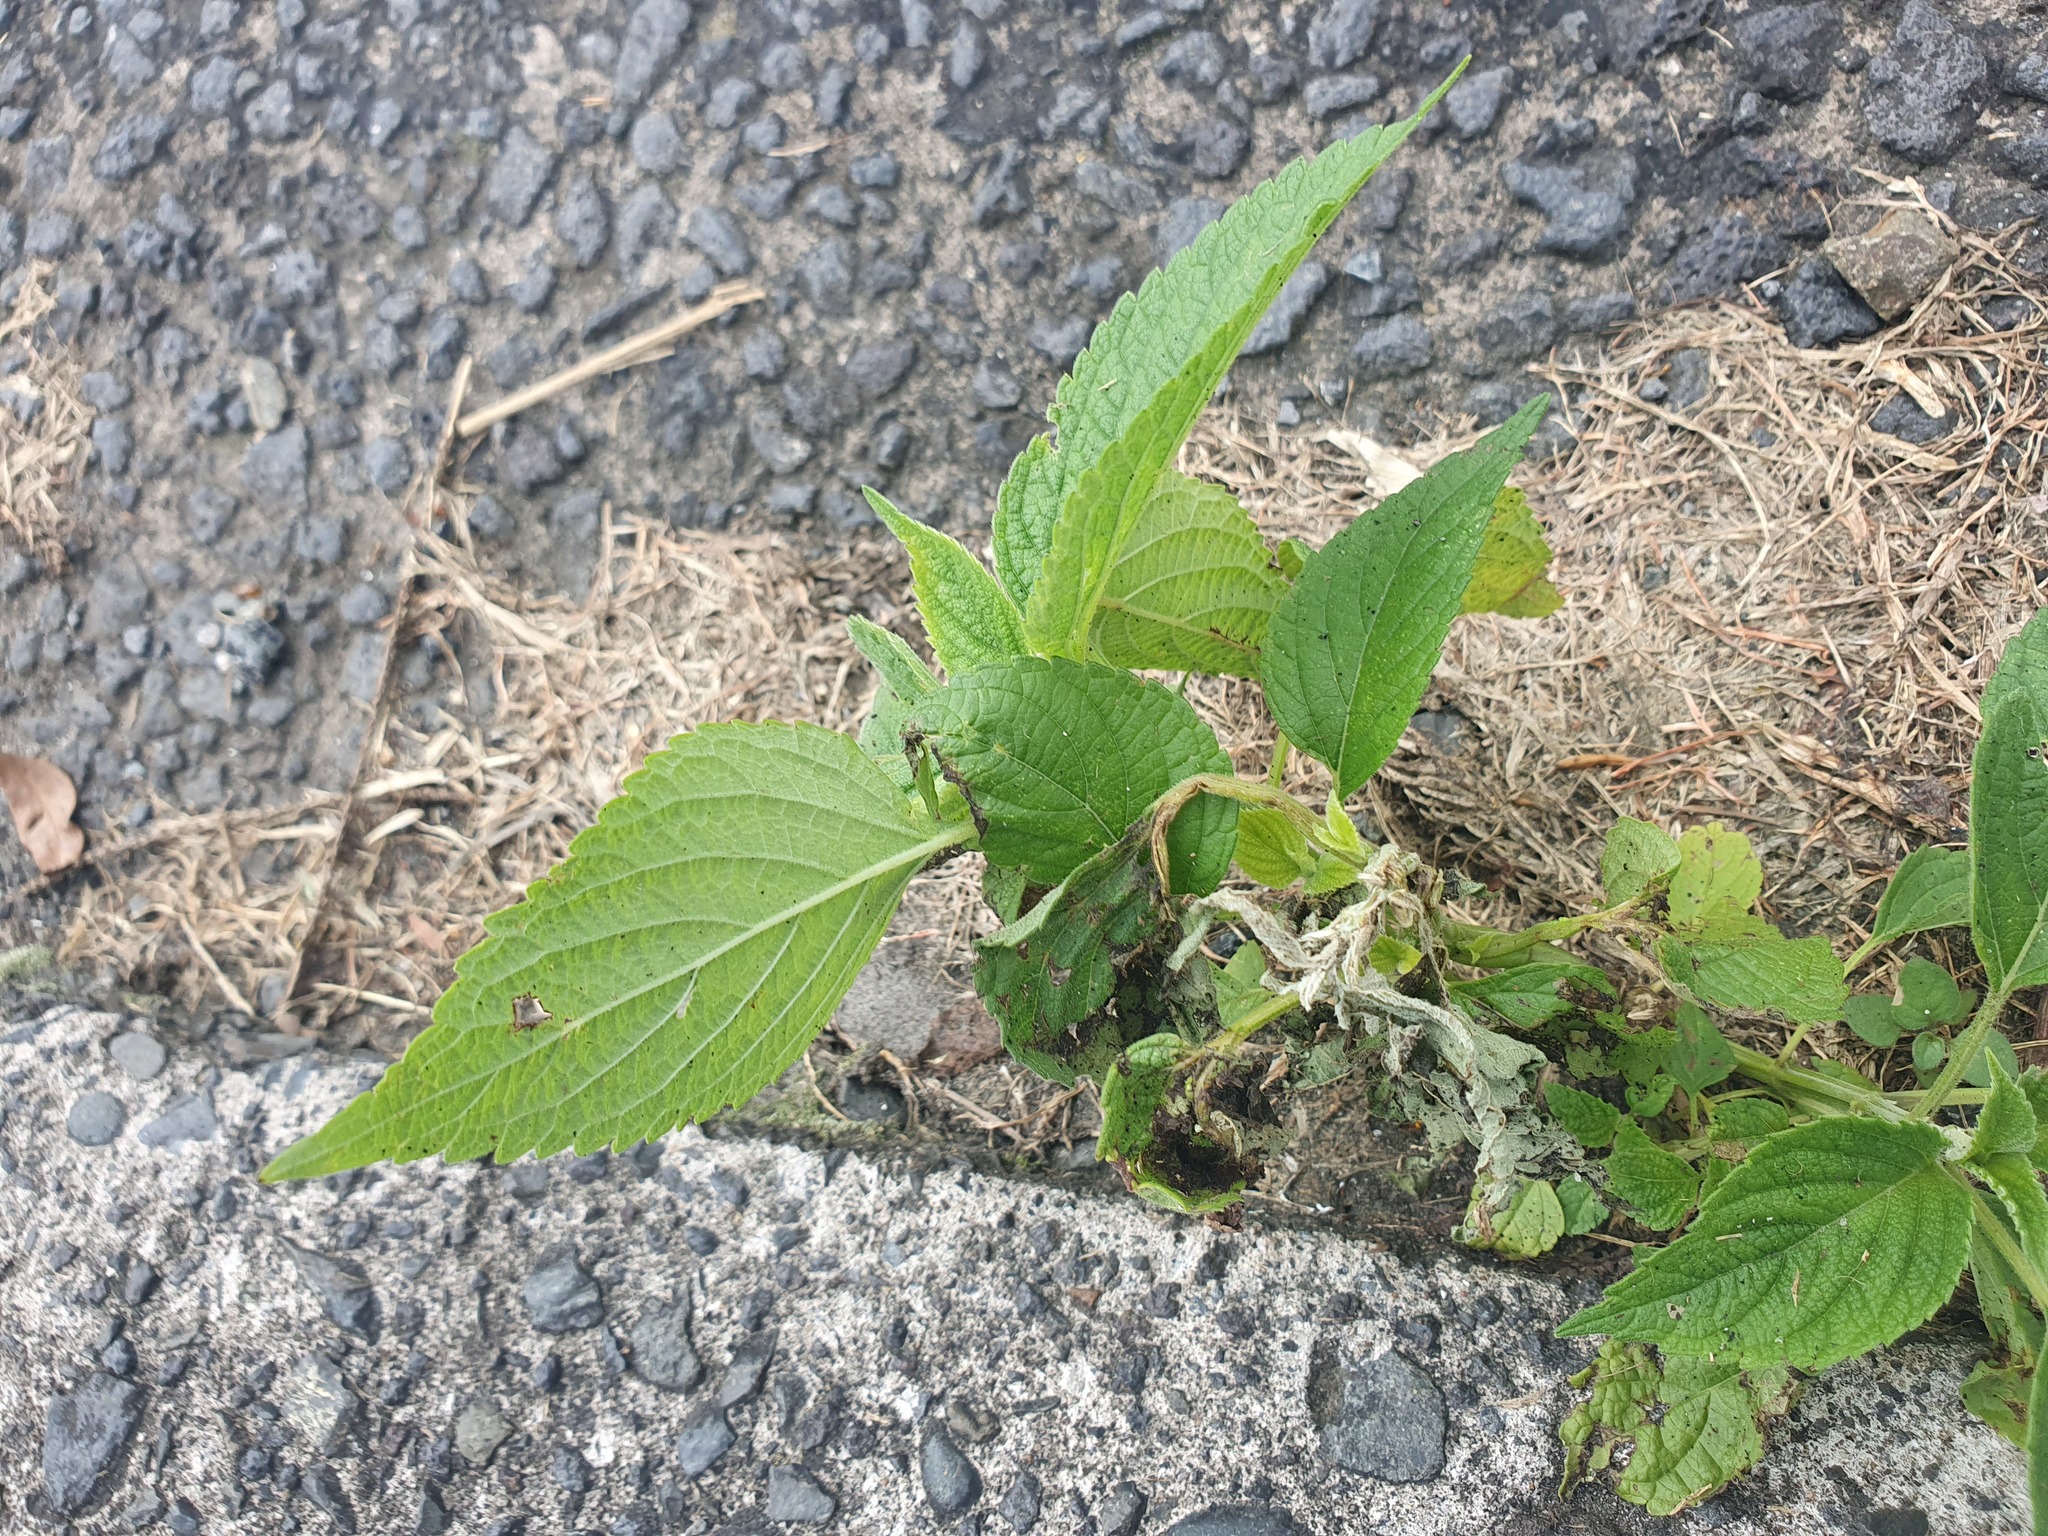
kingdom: Plantae
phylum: Tracheophyta
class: Magnoliopsida
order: Lamiales
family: Lamiaceae
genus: Salvia
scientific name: Salvia hispanica
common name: Chia
